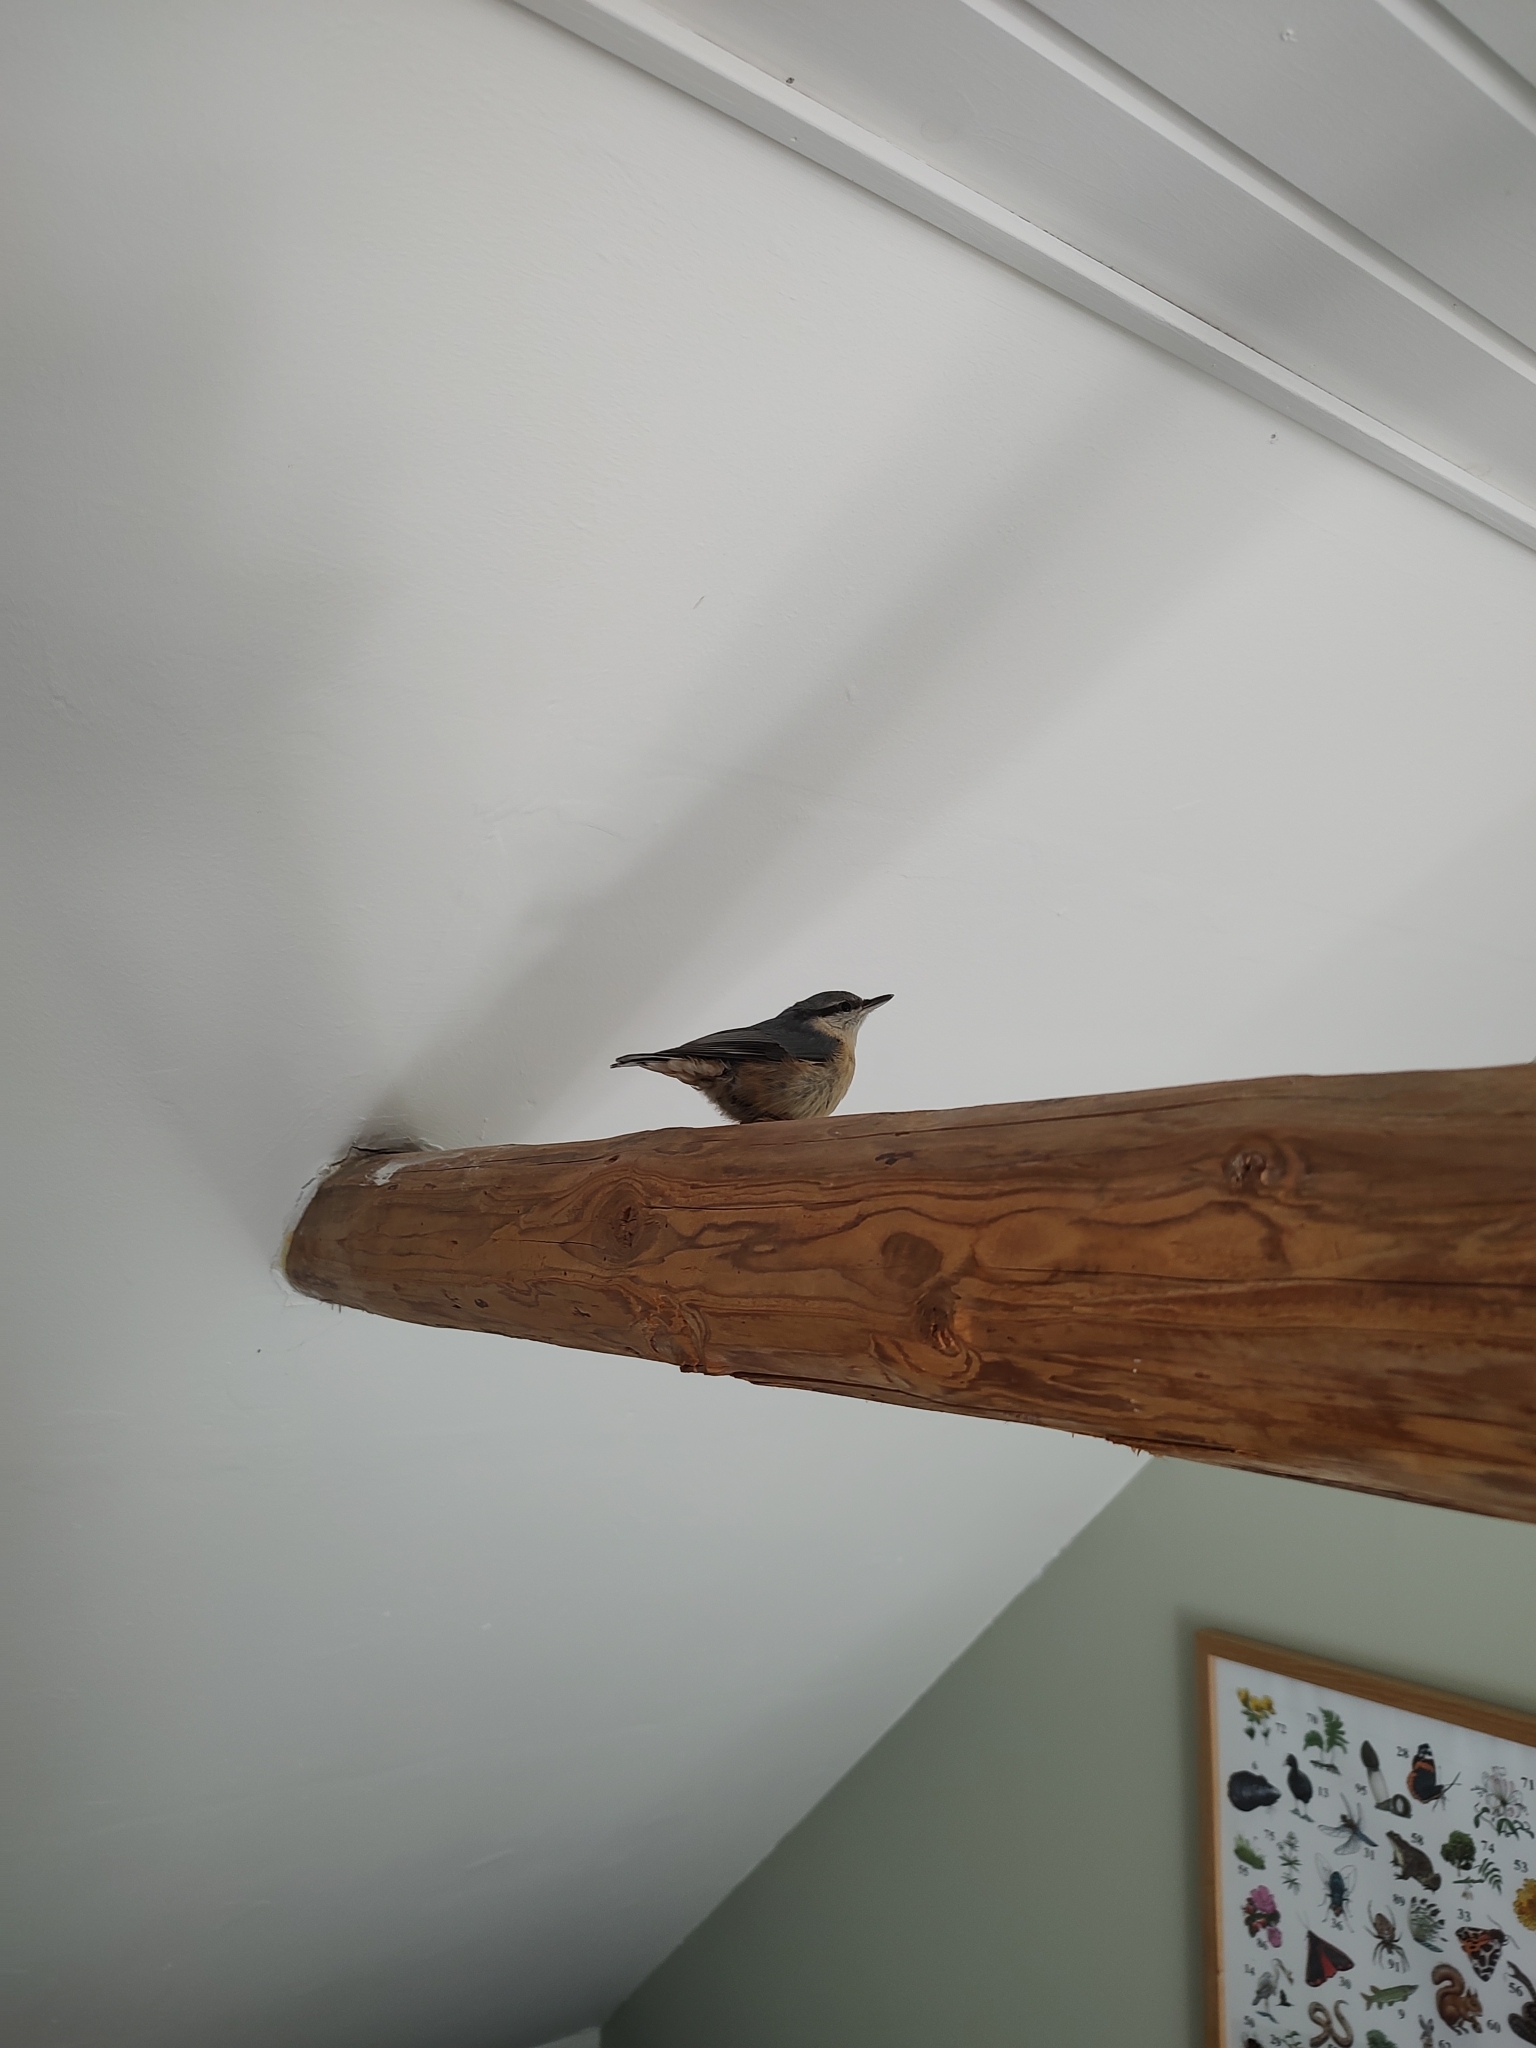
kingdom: Animalia
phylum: Chordata
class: Aves
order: Passeriformes
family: Sittidae
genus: Sitta
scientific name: Sitta europaea
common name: Eurasian nuthatch
